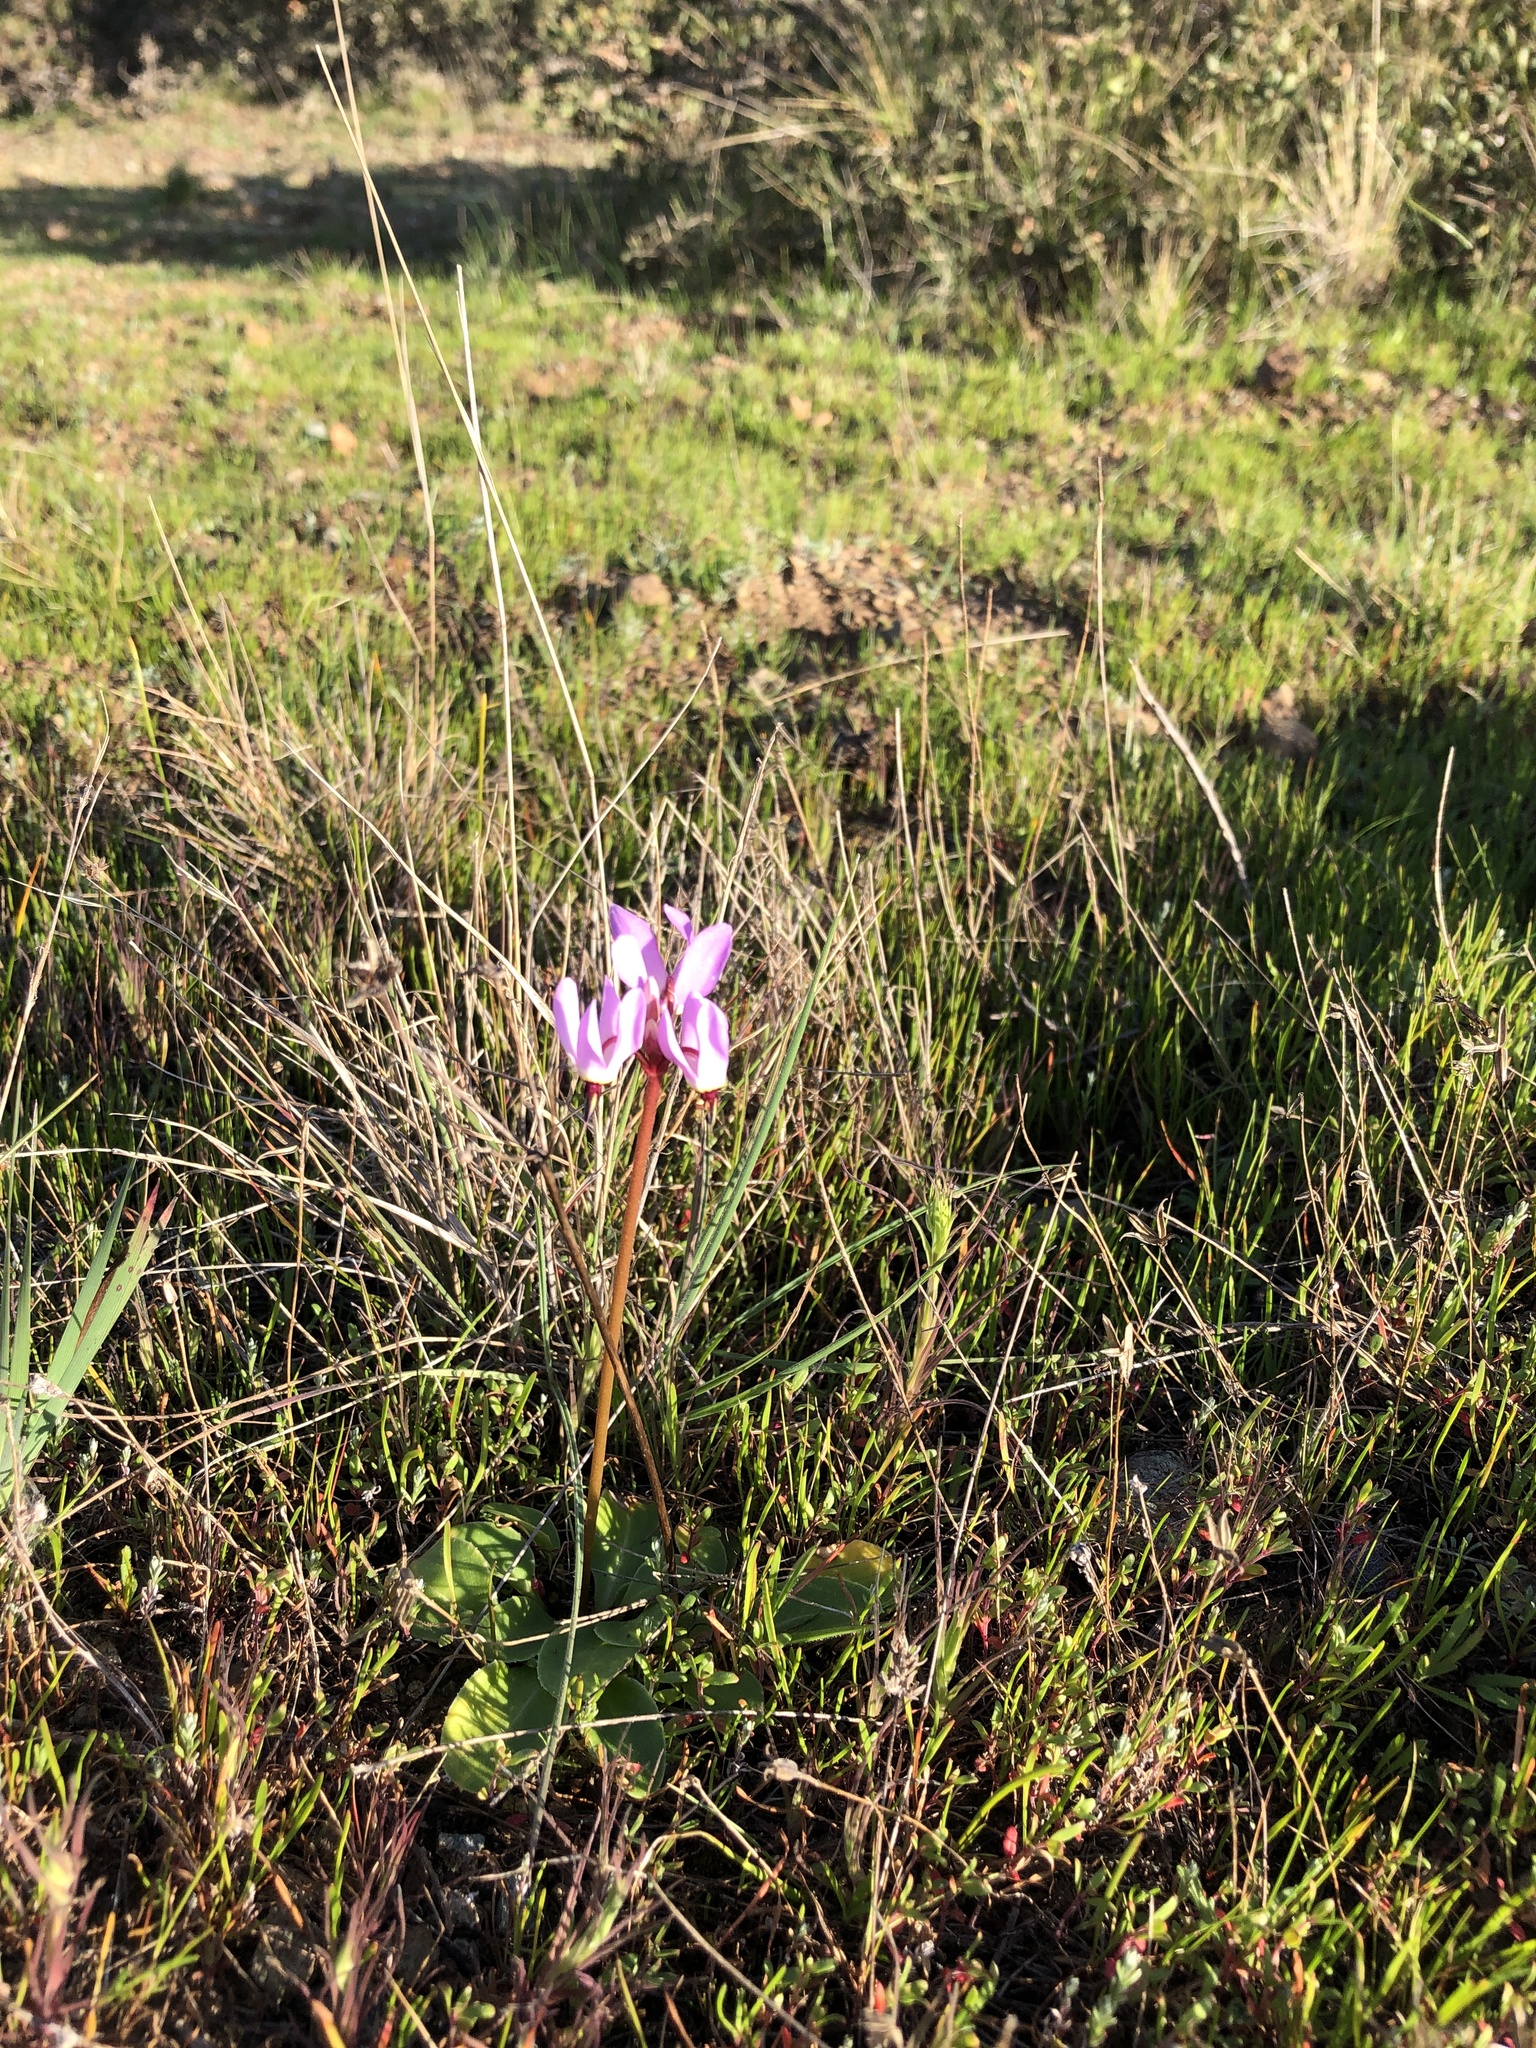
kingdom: Plantae
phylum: Tracheophyta
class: Magnoliopsida
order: Ericales
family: Primulaceae
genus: Dodecatheon
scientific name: Dodecatheon hendersonii
